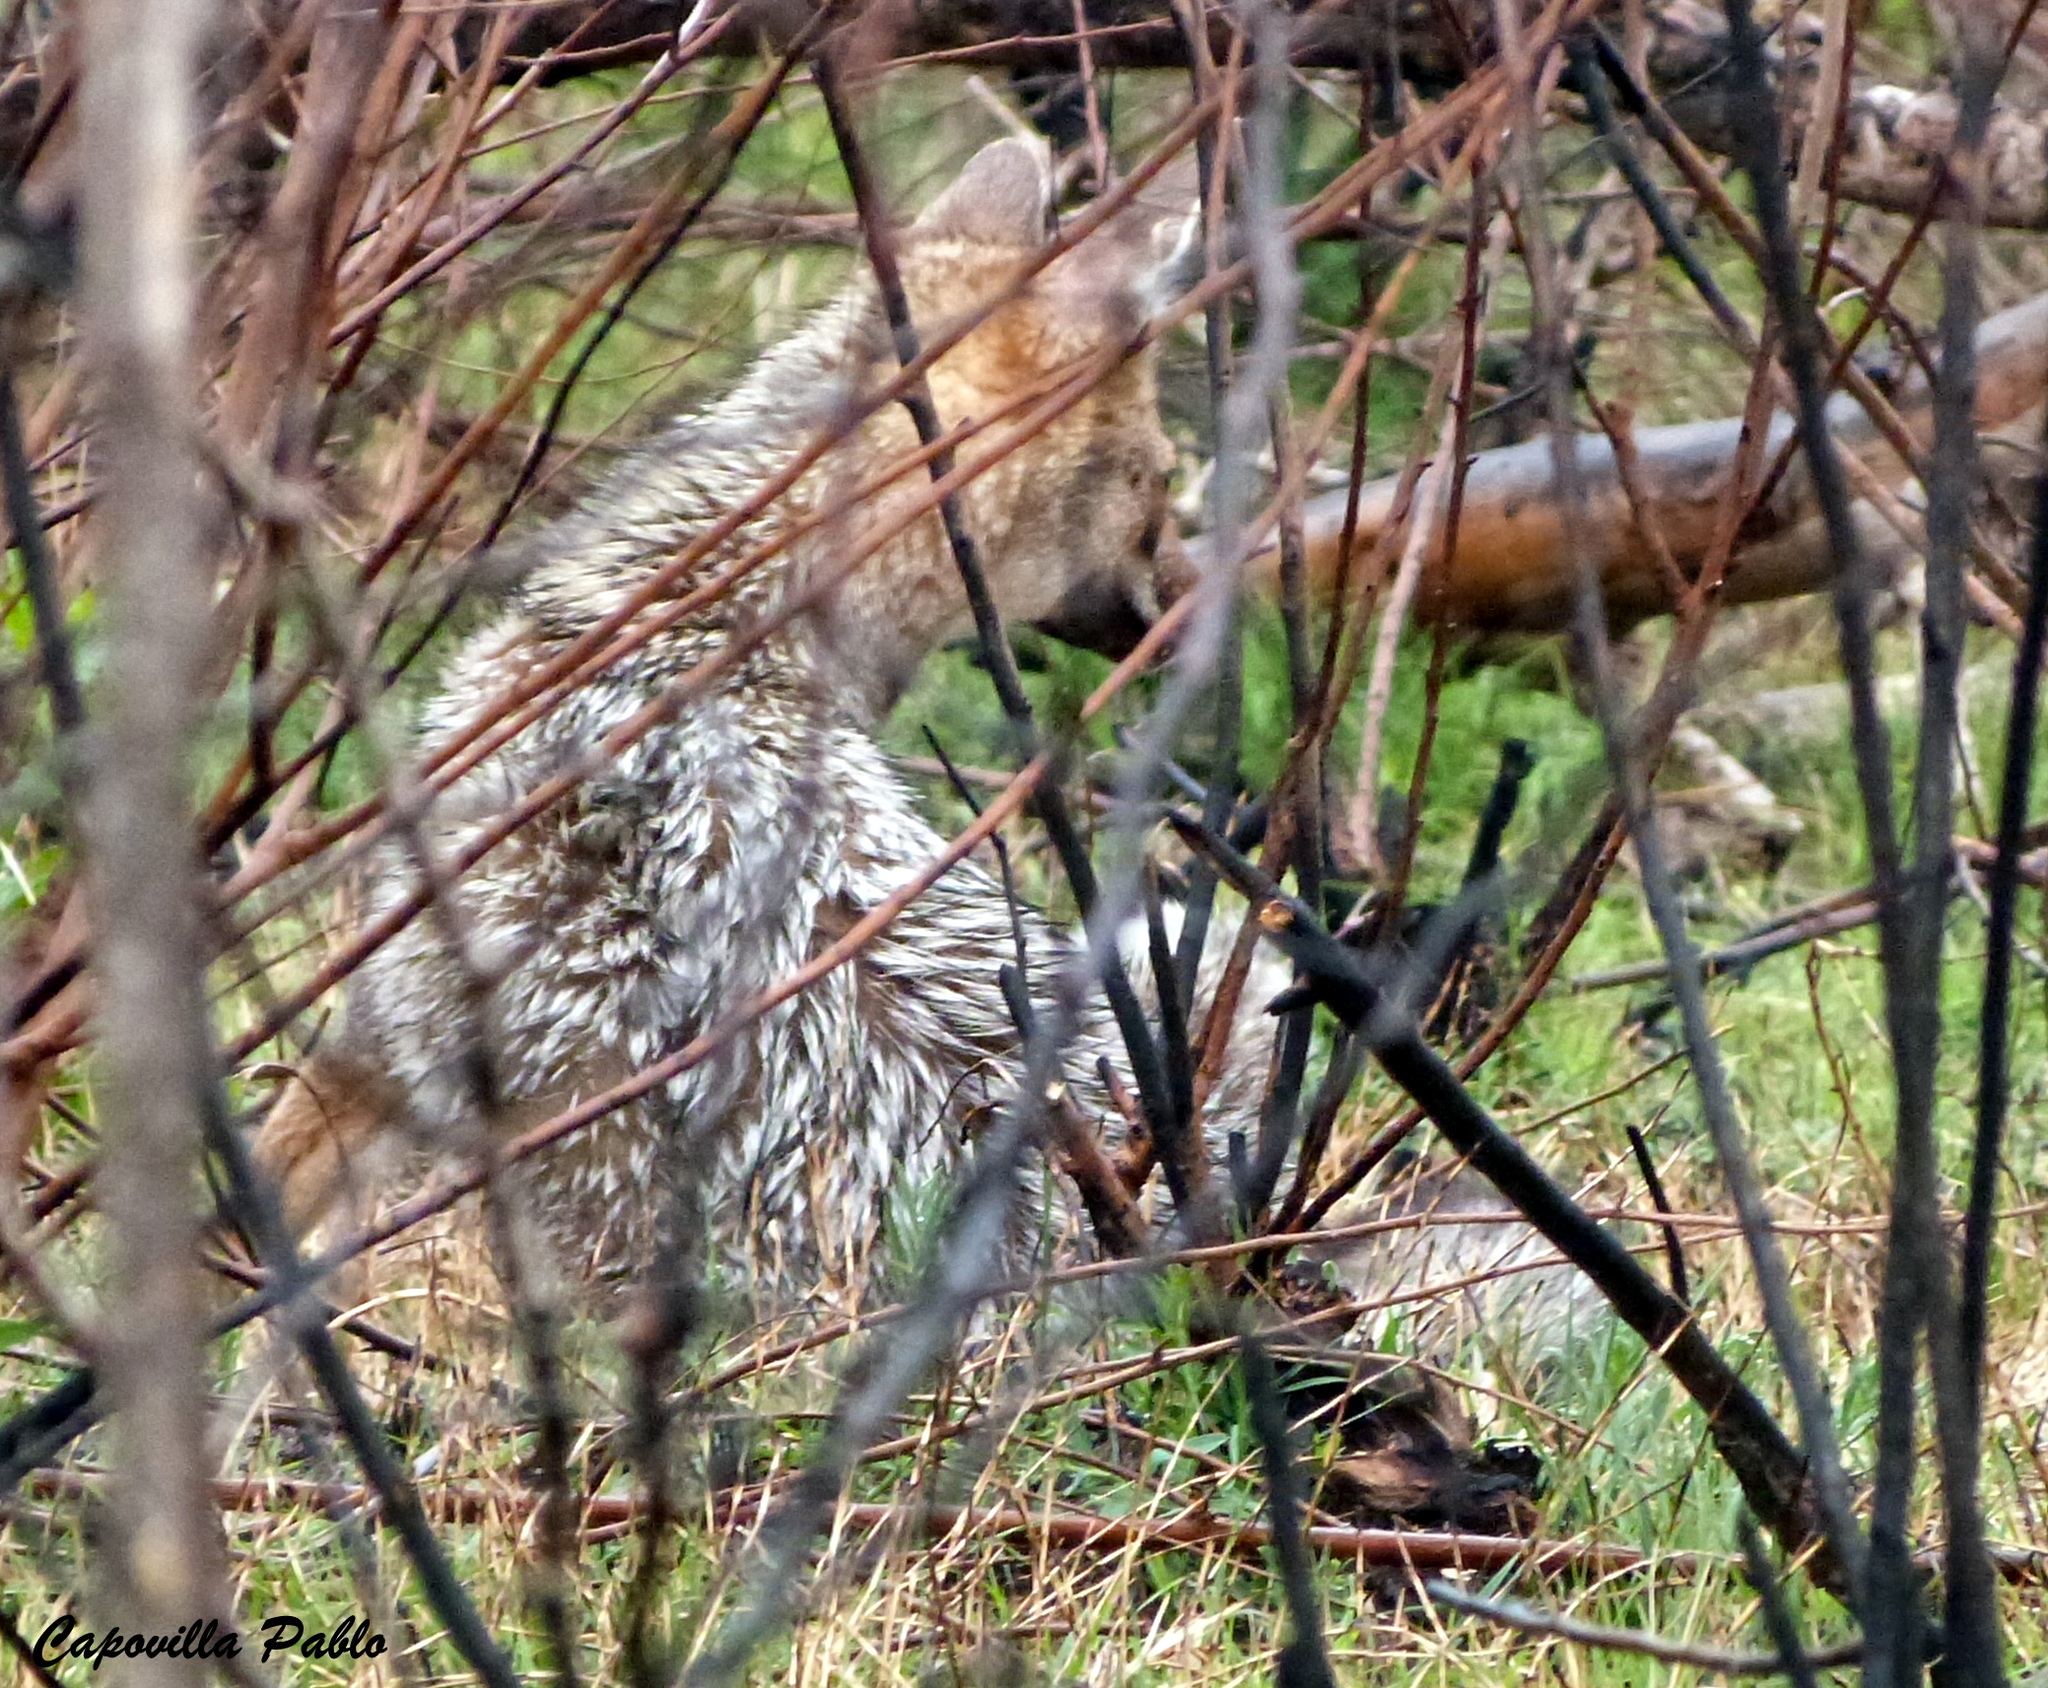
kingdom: Animalia
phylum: Chordata
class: Mammalia
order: Carnivora
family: Canidae
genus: Lycalopex
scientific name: Lycalopex gymnocercus
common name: Pampas fox
